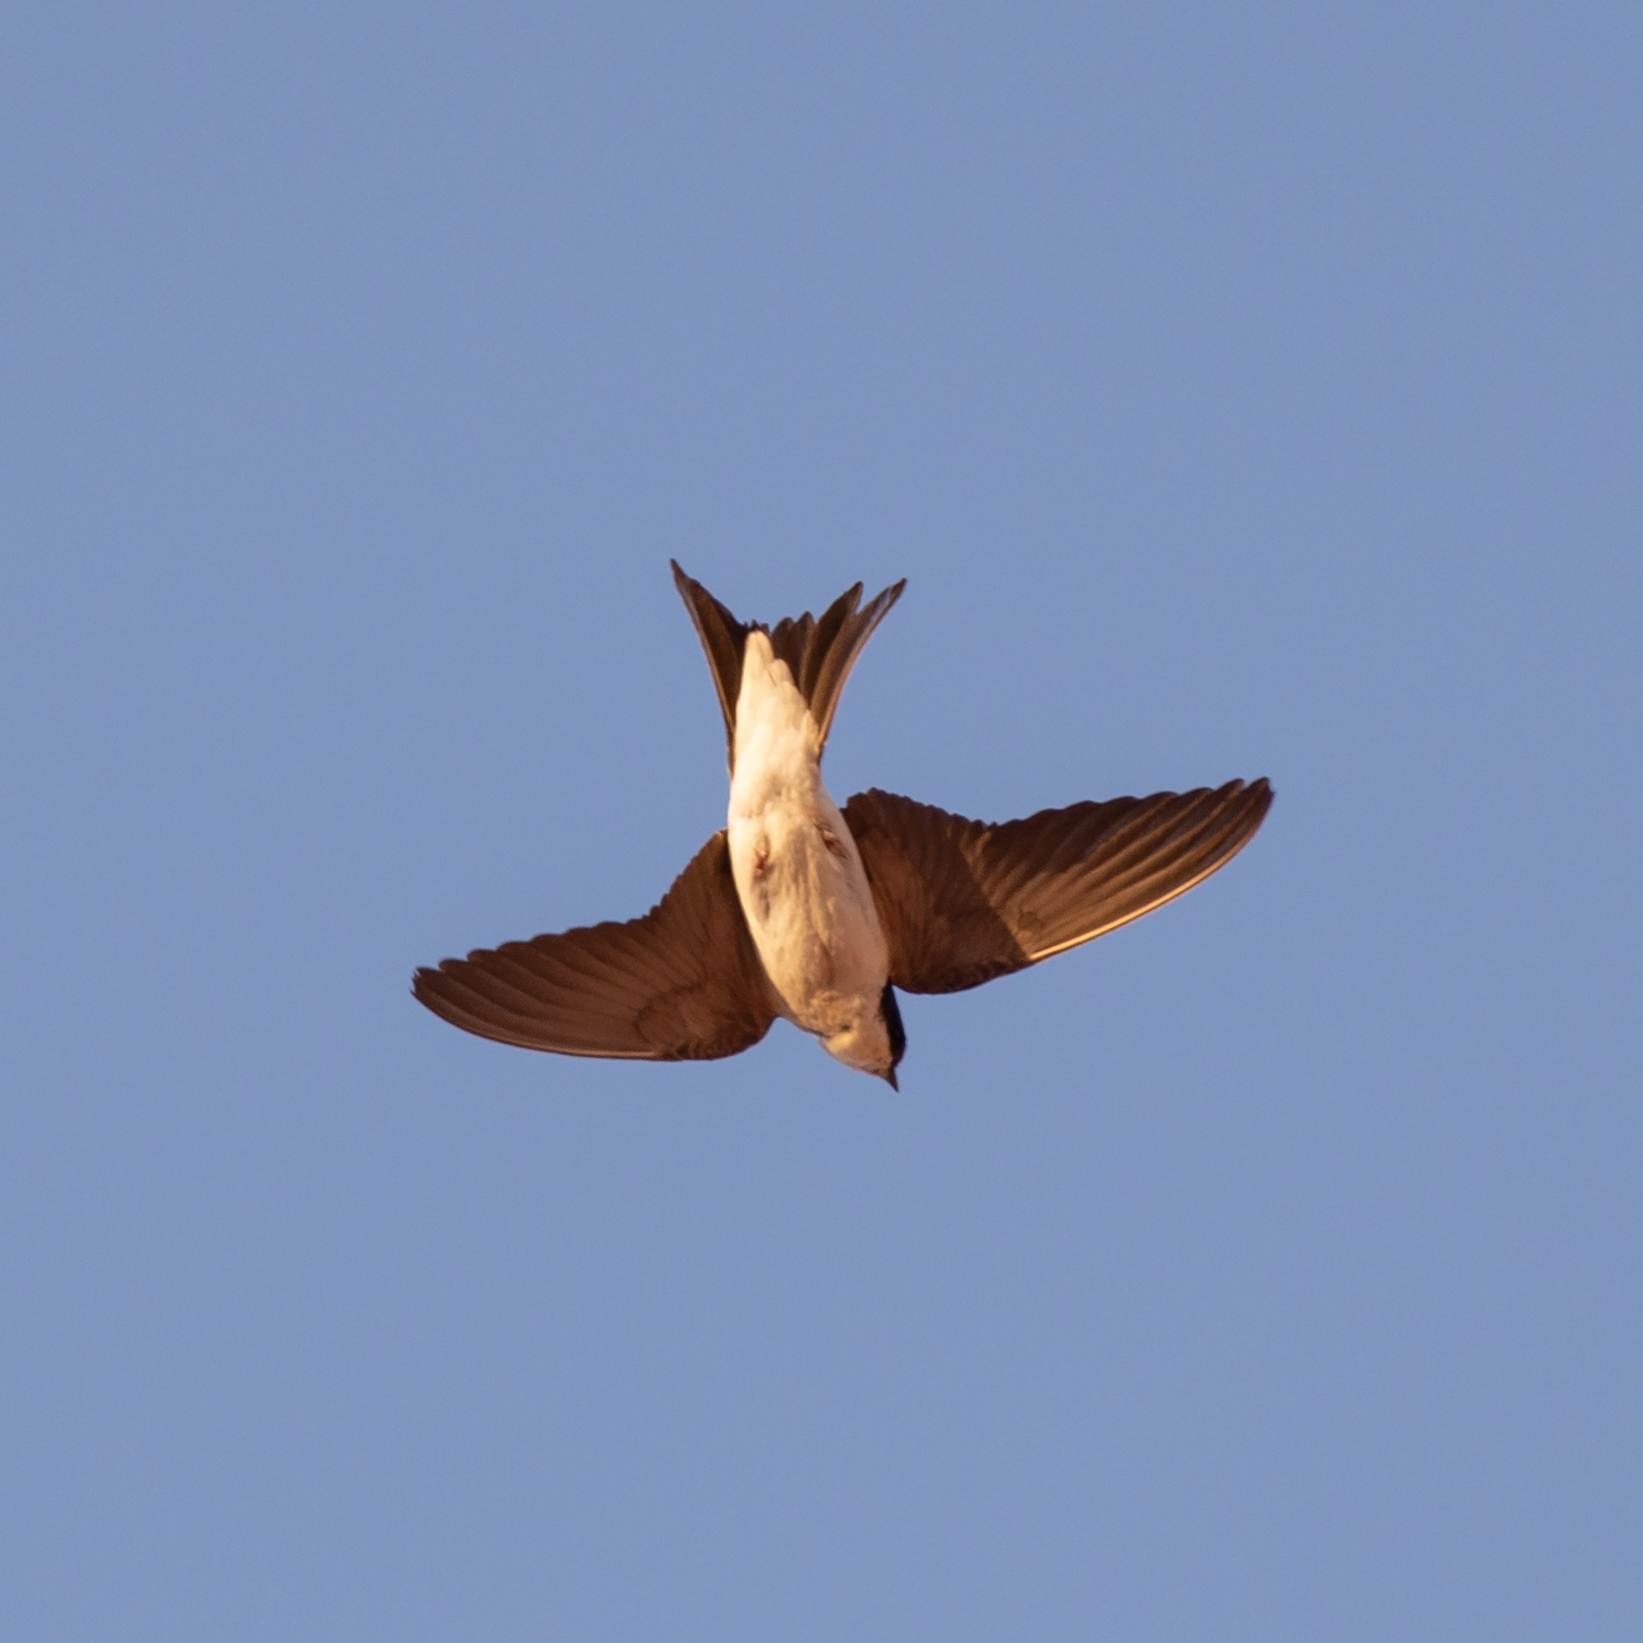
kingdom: Animalia
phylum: Chordata
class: Aves
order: Passeriformes
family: Hirundinidae
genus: Delichon
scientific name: Delichon urbicum
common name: Common house martin
